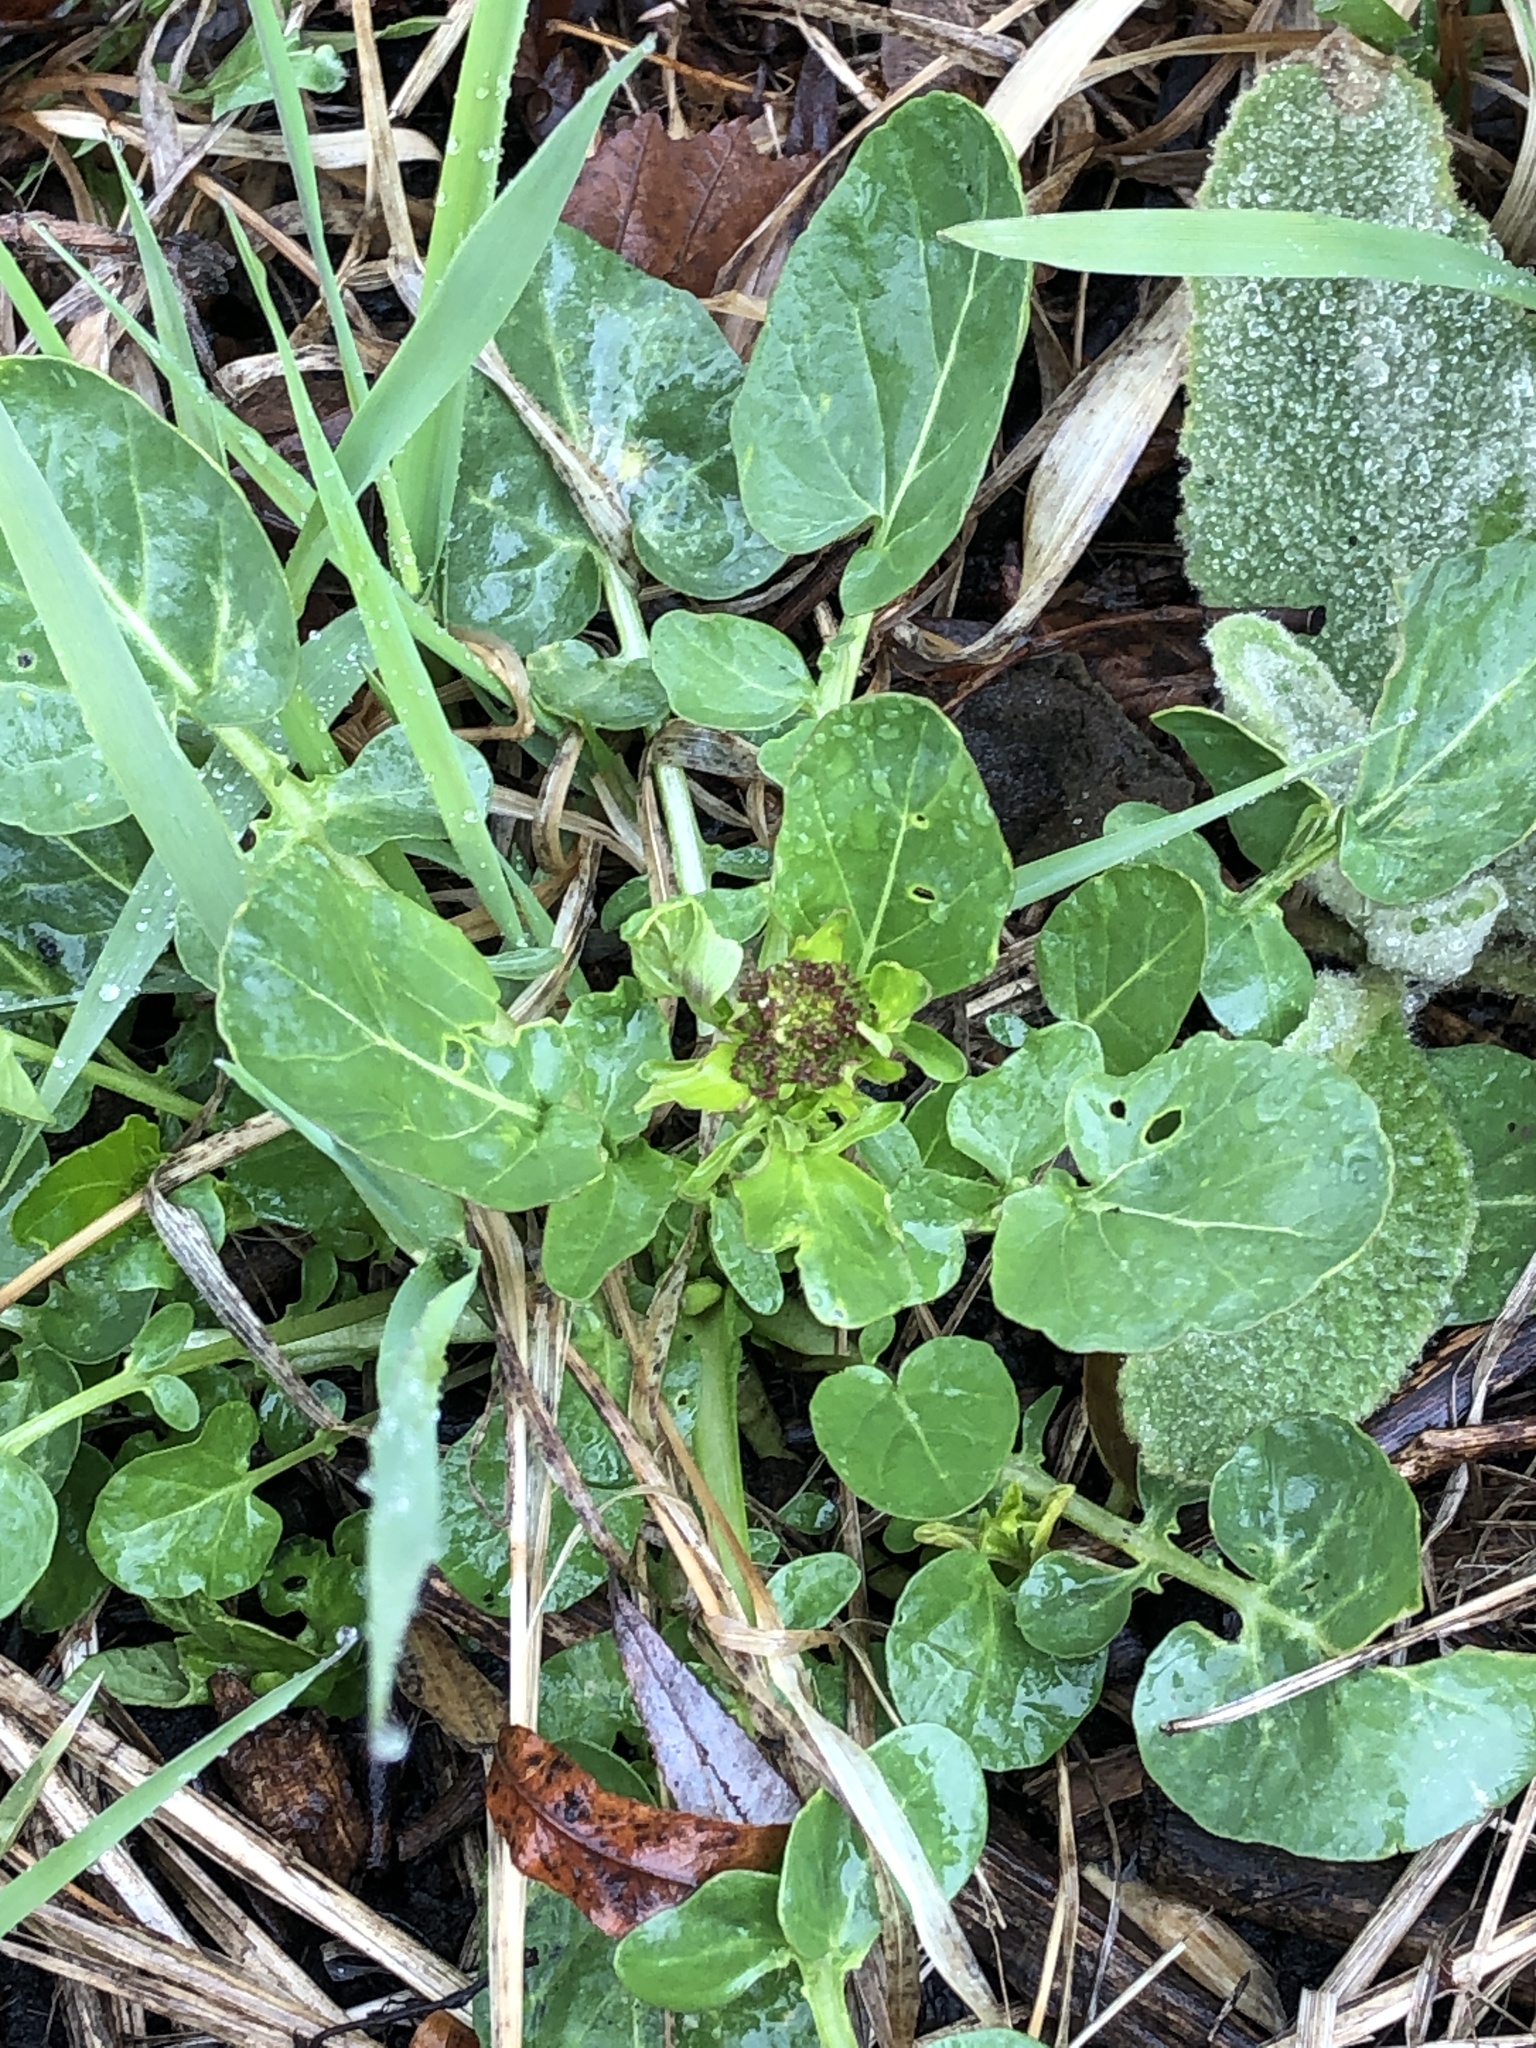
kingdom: Plantae
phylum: Tracheophyta
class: Magnoliopsida
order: Brassicales
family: Brassicaceae
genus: Barbarea
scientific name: Barbarea vulgaris
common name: Cressy-greens
